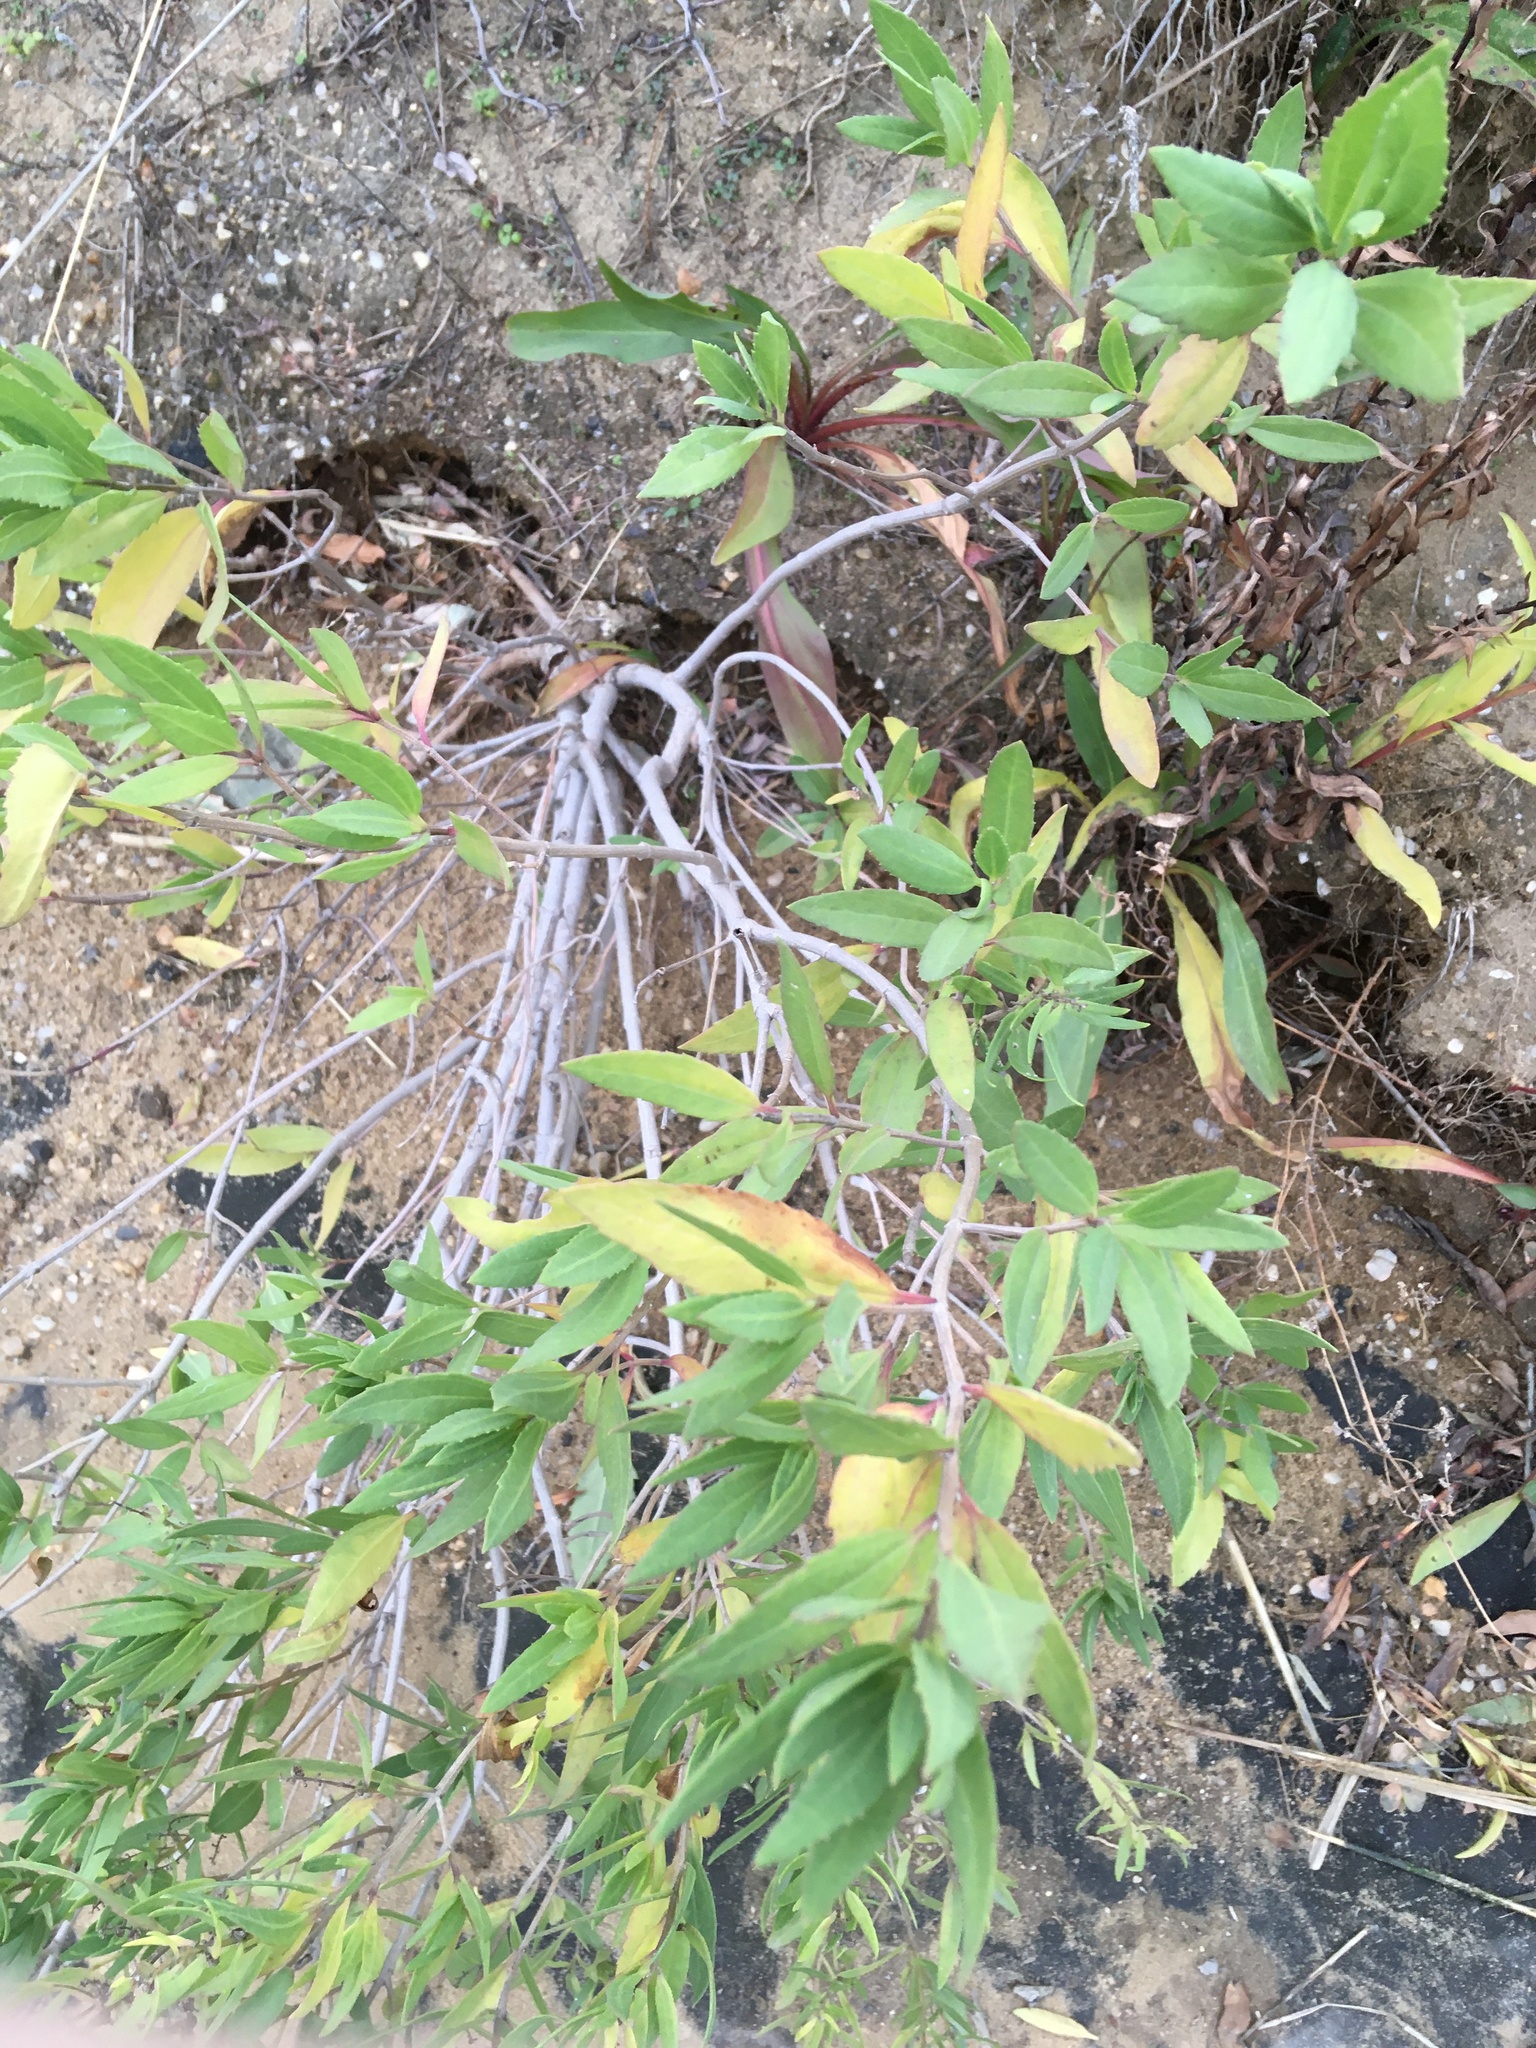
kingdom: Plantae
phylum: Tracheophyta
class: Magnoliopsida
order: Asterales
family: Asteraceae
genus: Iva
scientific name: Iva frutescens
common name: Big-leaved marsh-elder
